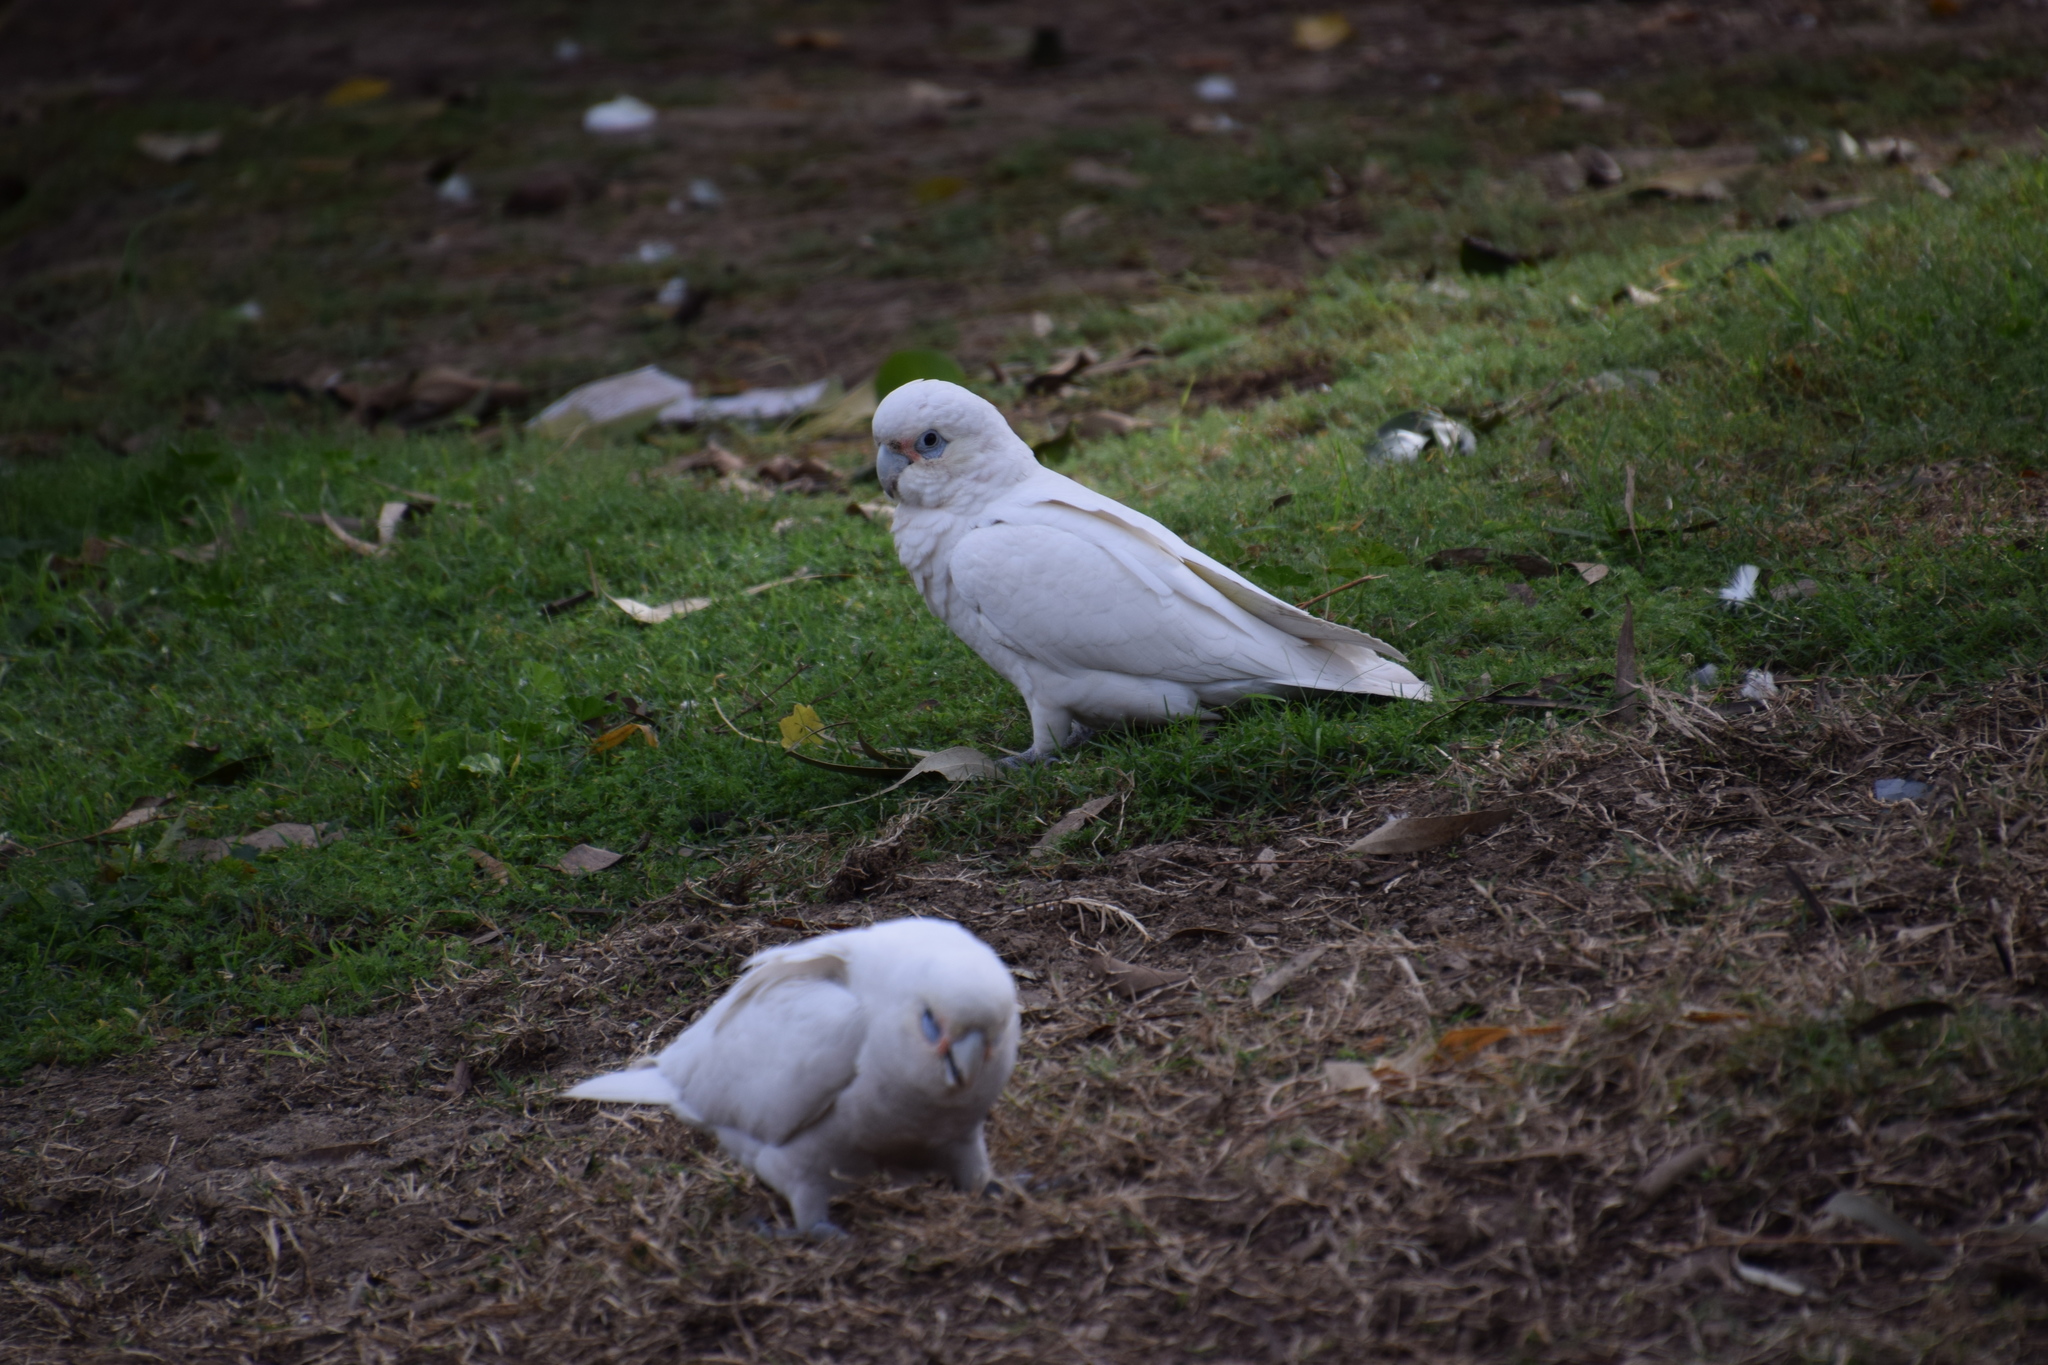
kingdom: Animalia
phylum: Chordata
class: Aves
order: Psittaciformes
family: Psittacidae
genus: Cacatua
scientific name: Cacatua sanguinea
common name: Little corella
